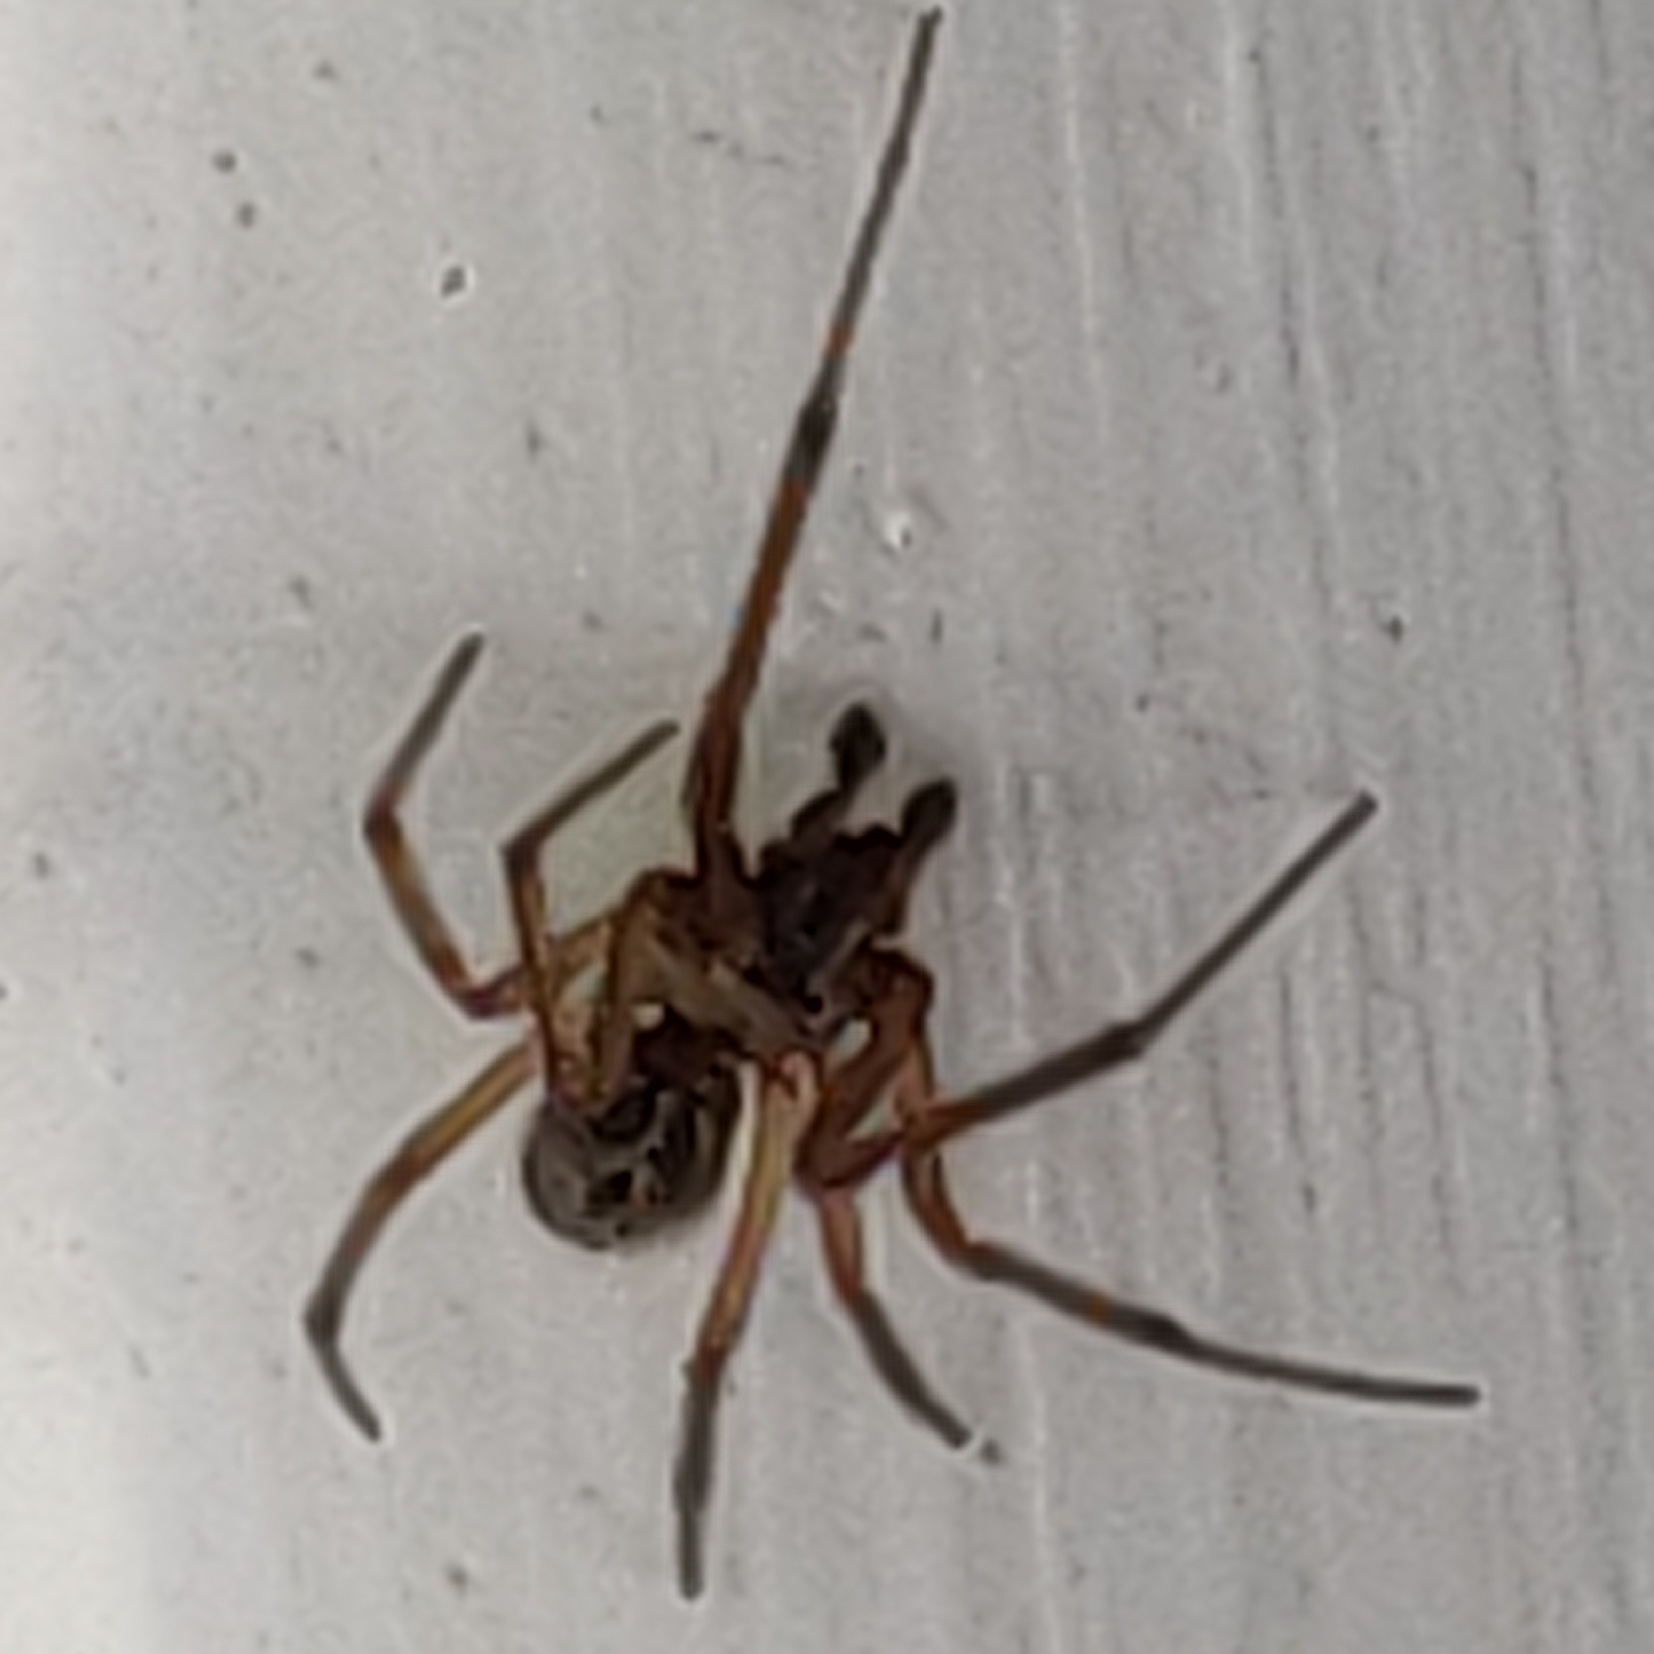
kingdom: Animalia
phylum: Arthropoda
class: Arachnida
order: Araneae
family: Araneidae
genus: Larinioides
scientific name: Larinioides cornutus
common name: Furrow orbweaver
